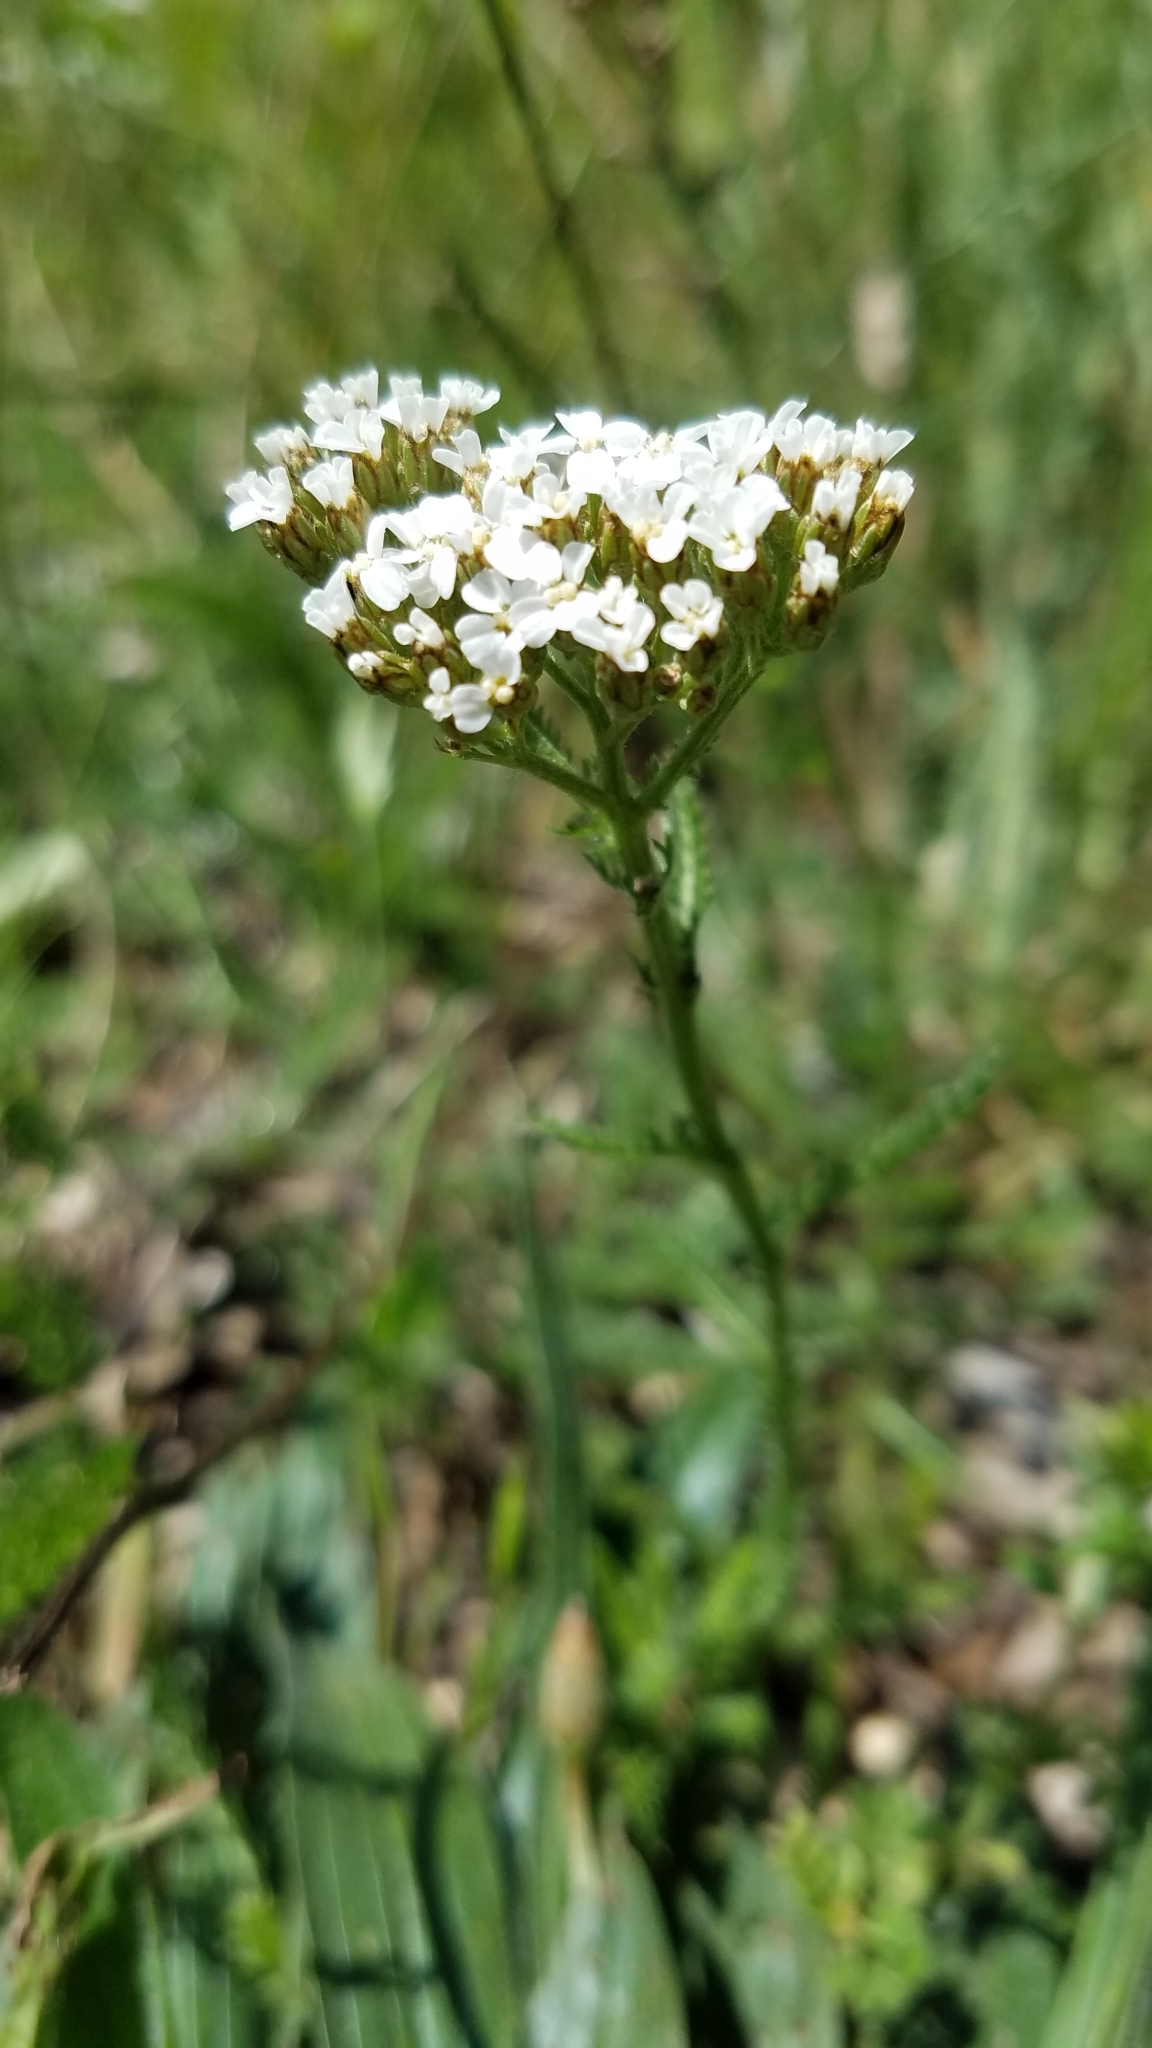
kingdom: Plantae
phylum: Tracheophyta
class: Magnoliopsida
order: Asterales
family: Asteraceae
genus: Achillea
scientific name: Achillea millefolium
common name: Yarrow
